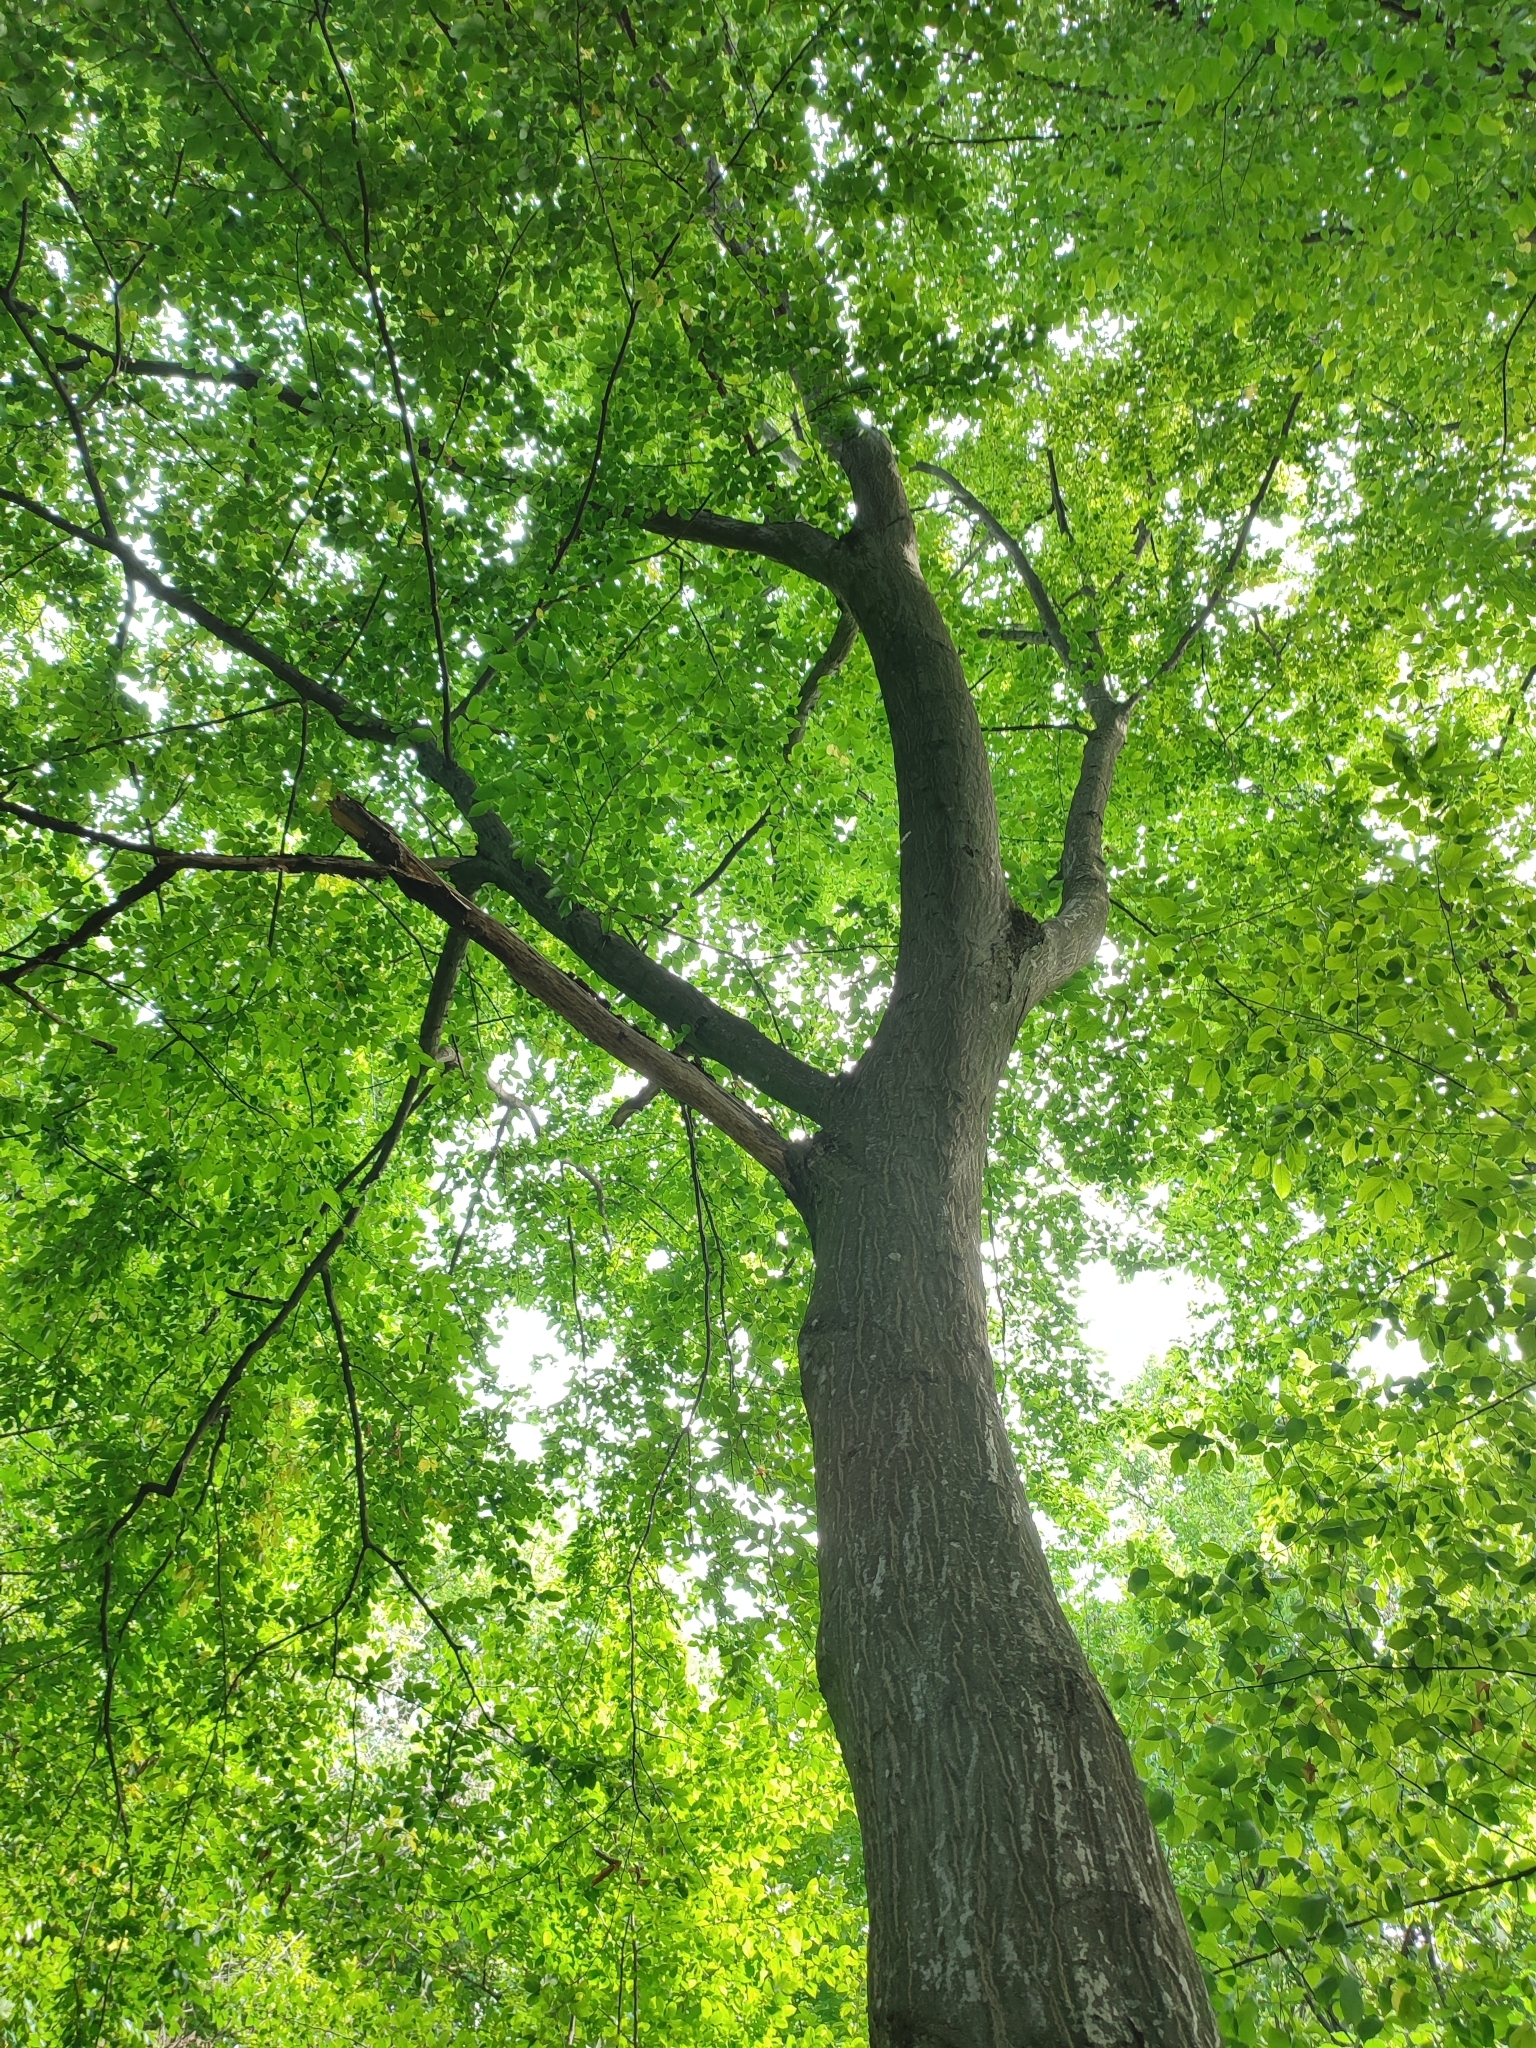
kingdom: Plantae
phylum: Tracheophyta
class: Magnoliopsida
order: Fagales
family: Betulaceae
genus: Carpinus
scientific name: Carpinus betulus
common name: Hornbeam
